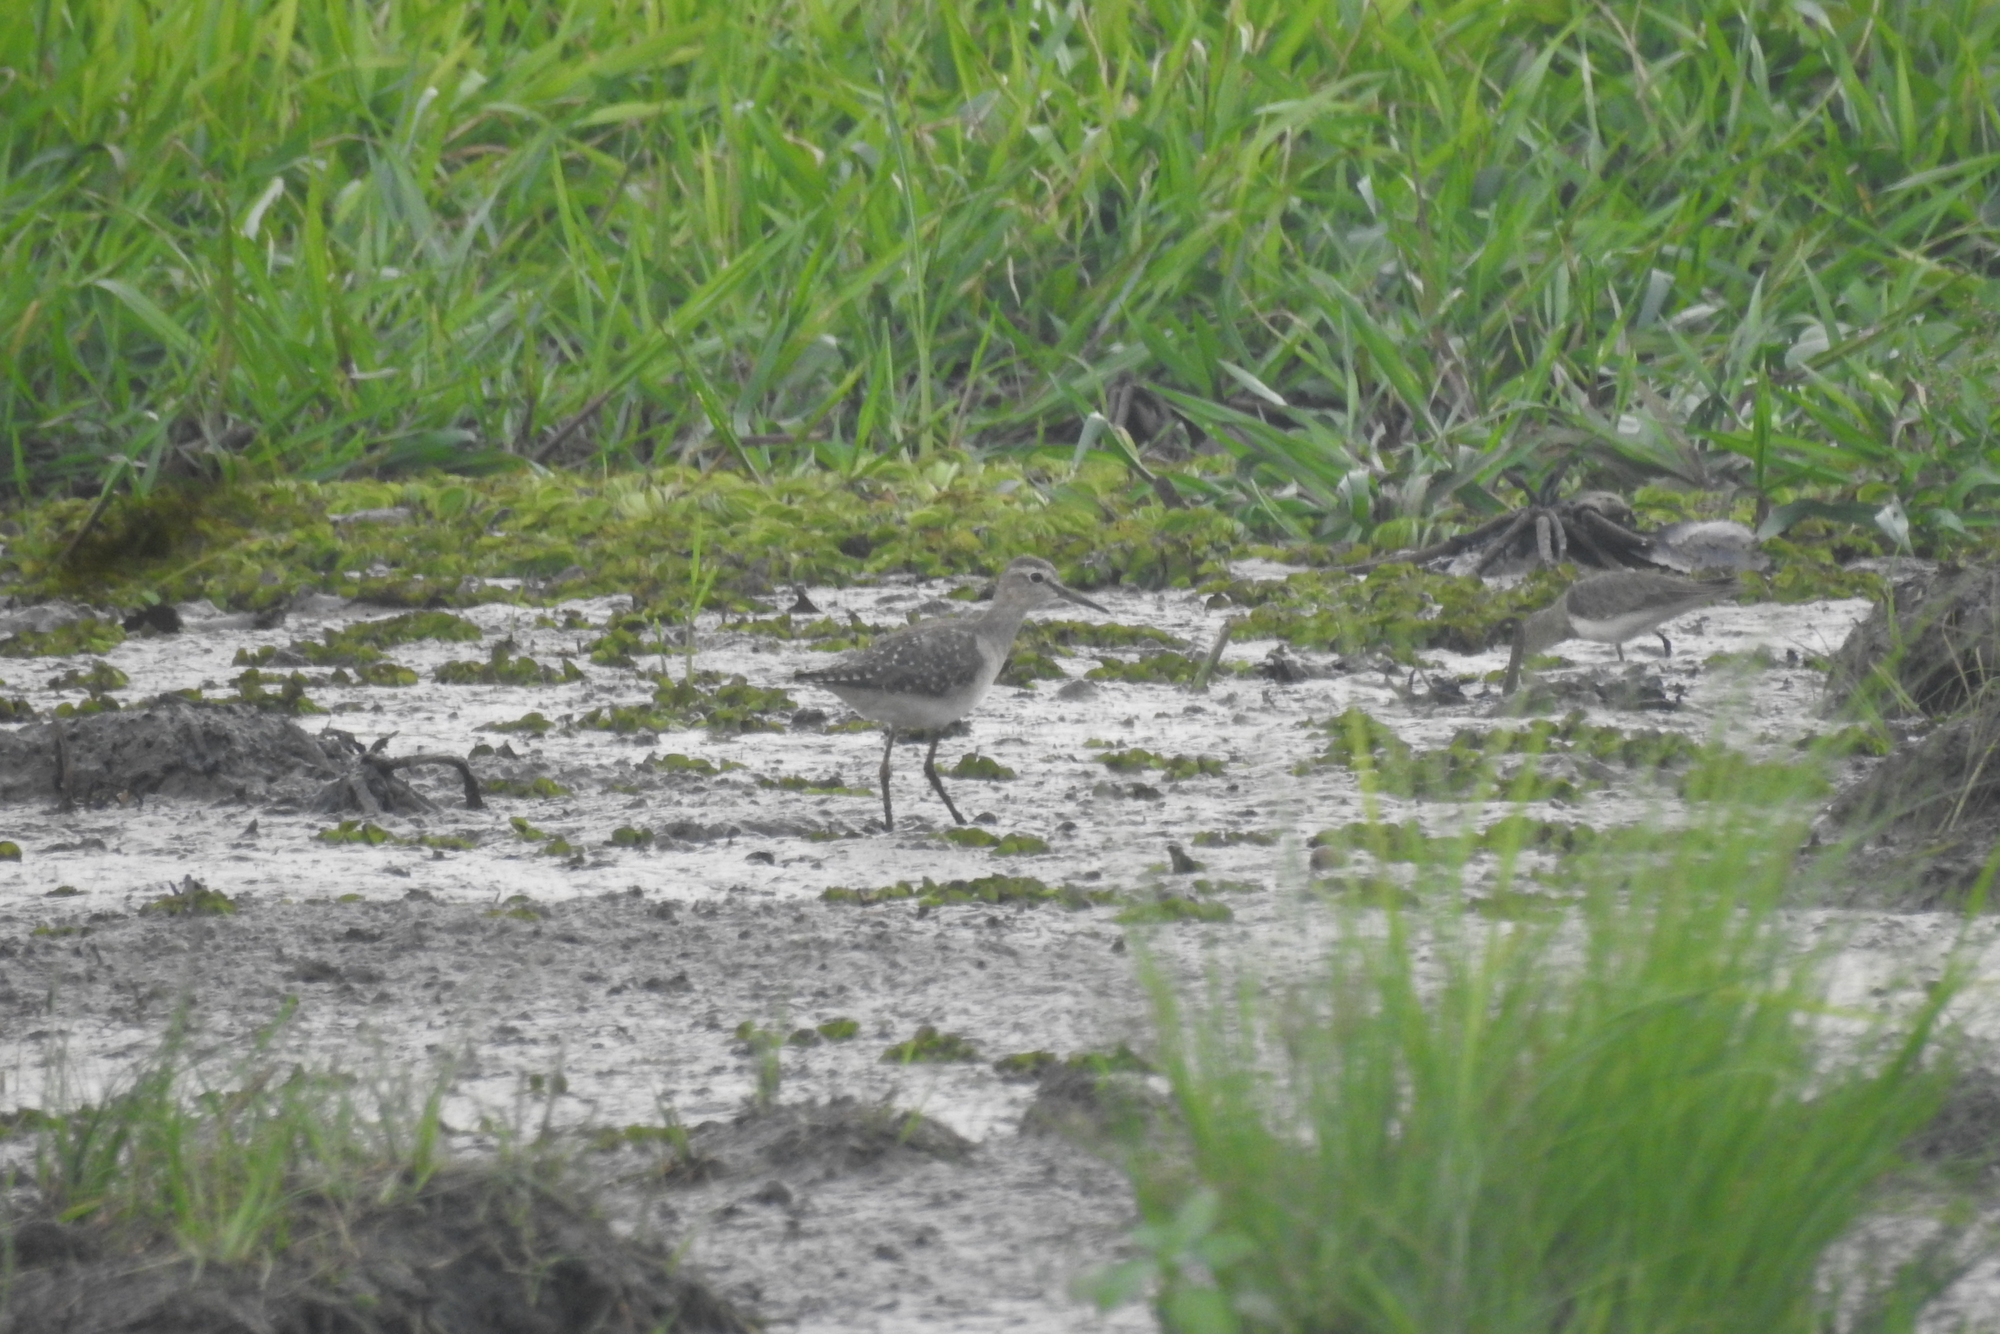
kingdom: Animalia
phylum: Chordata
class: Aves
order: Charadriiformes
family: Scolopacidae
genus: Tringa
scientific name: Tringa glareola
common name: Wood sandpiper
